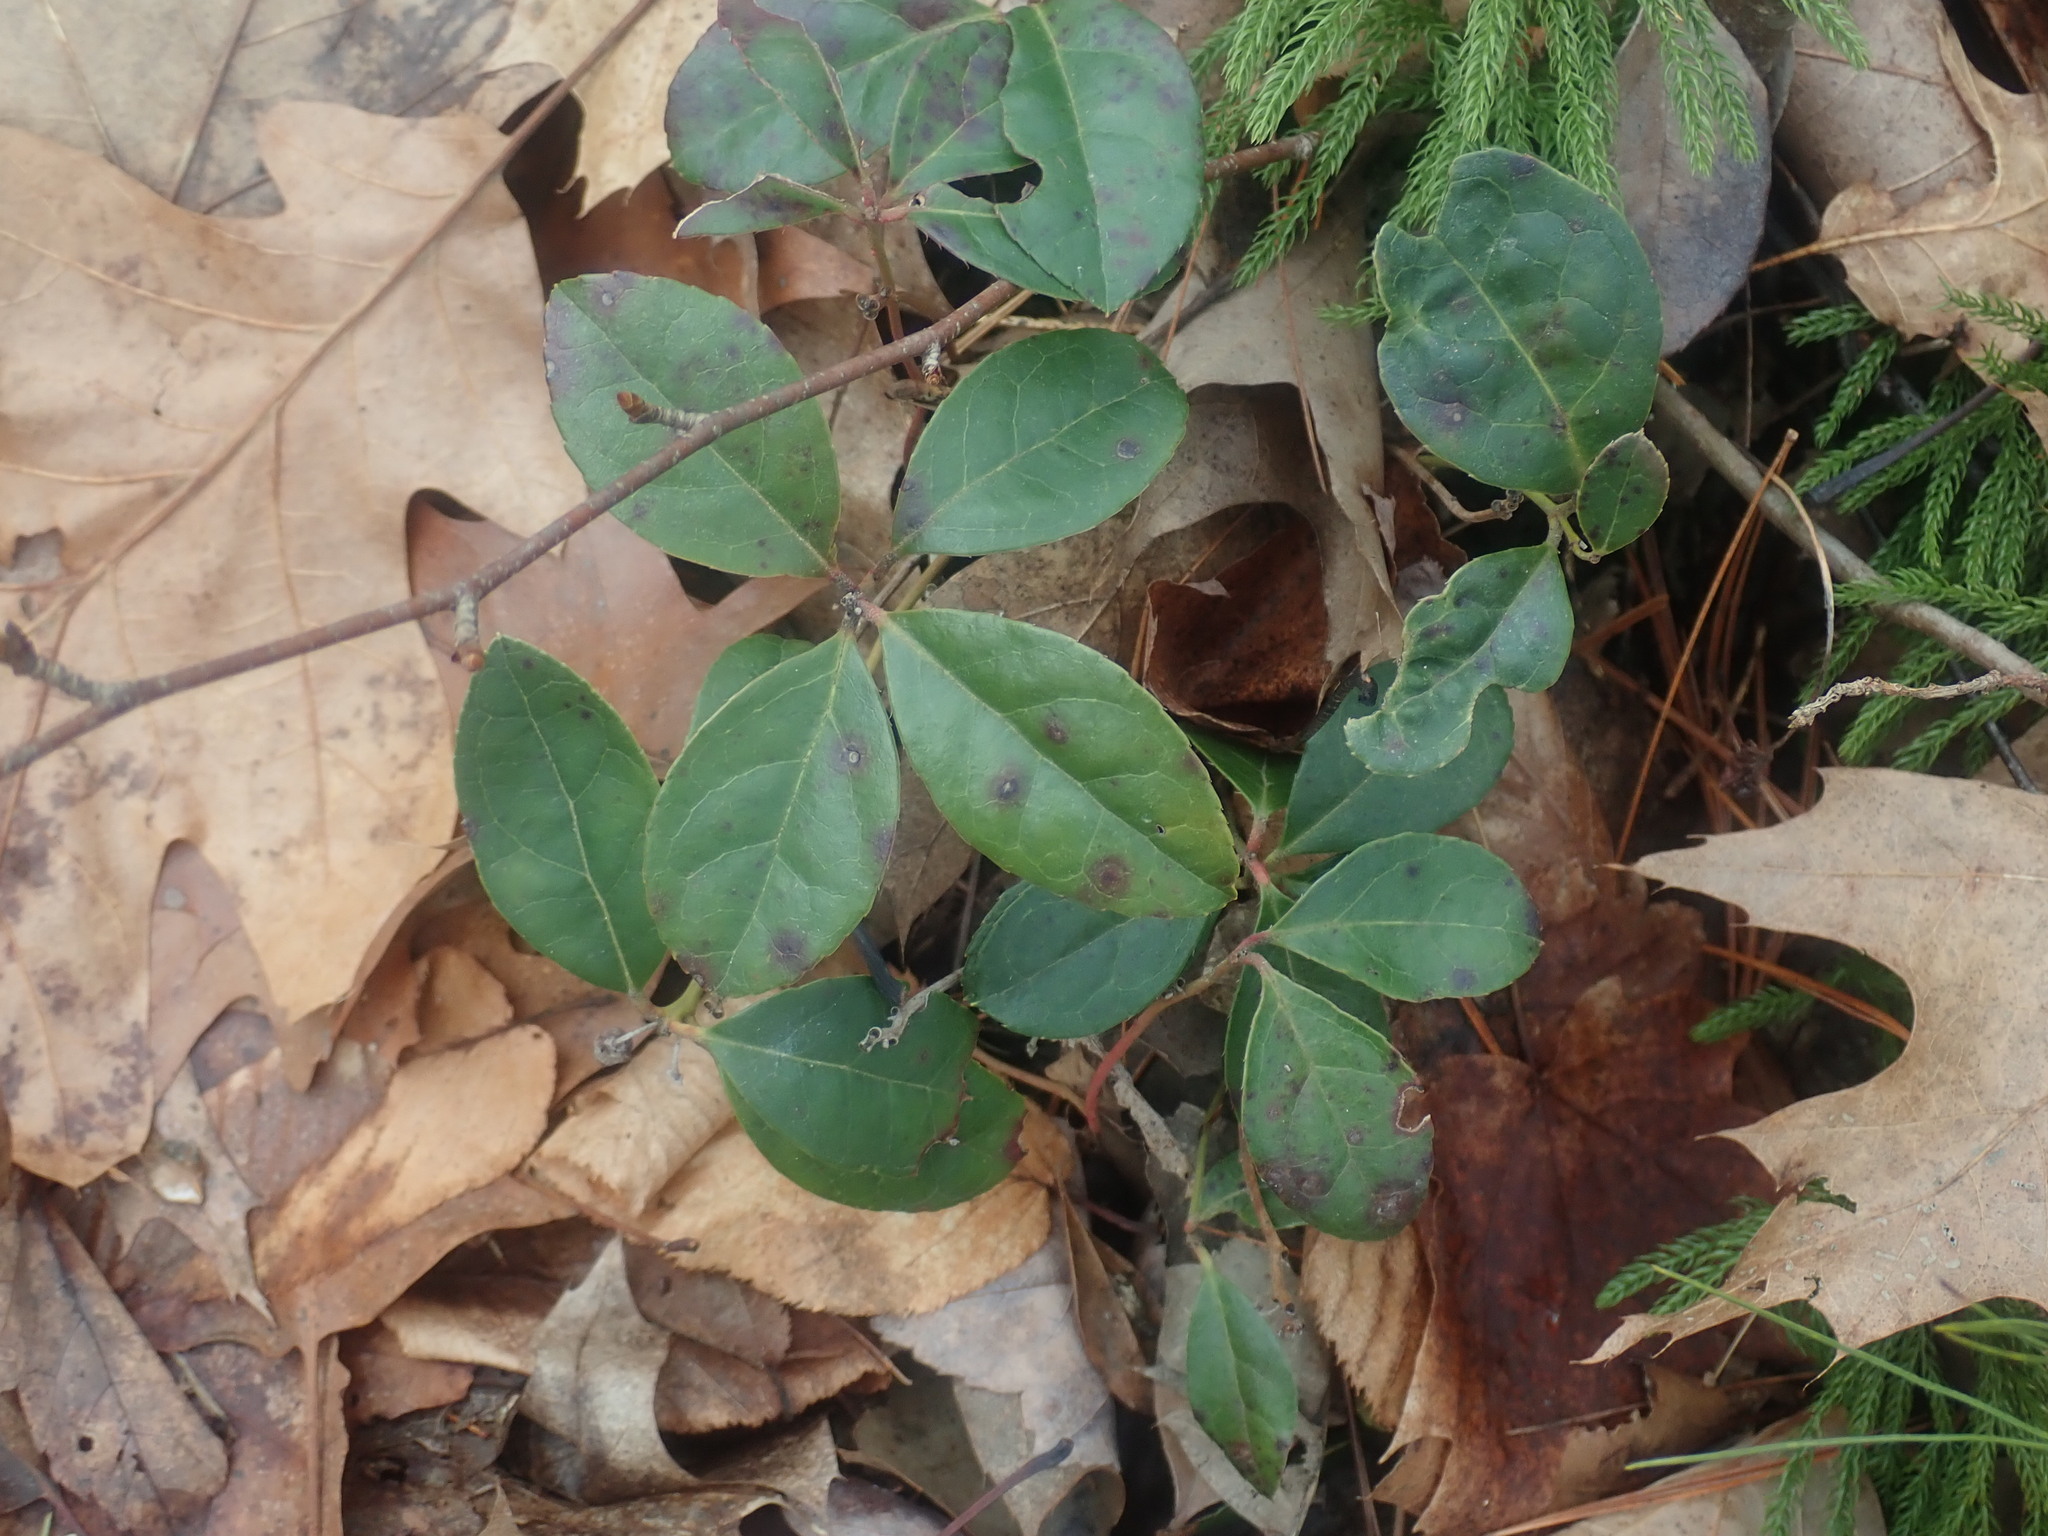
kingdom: Plantae
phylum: Tracheophyta
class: Magnoliopsida
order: Ericales
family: Ericaceae
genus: Gaultheria
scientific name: Gaultheria procumbens
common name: Checkerberry
